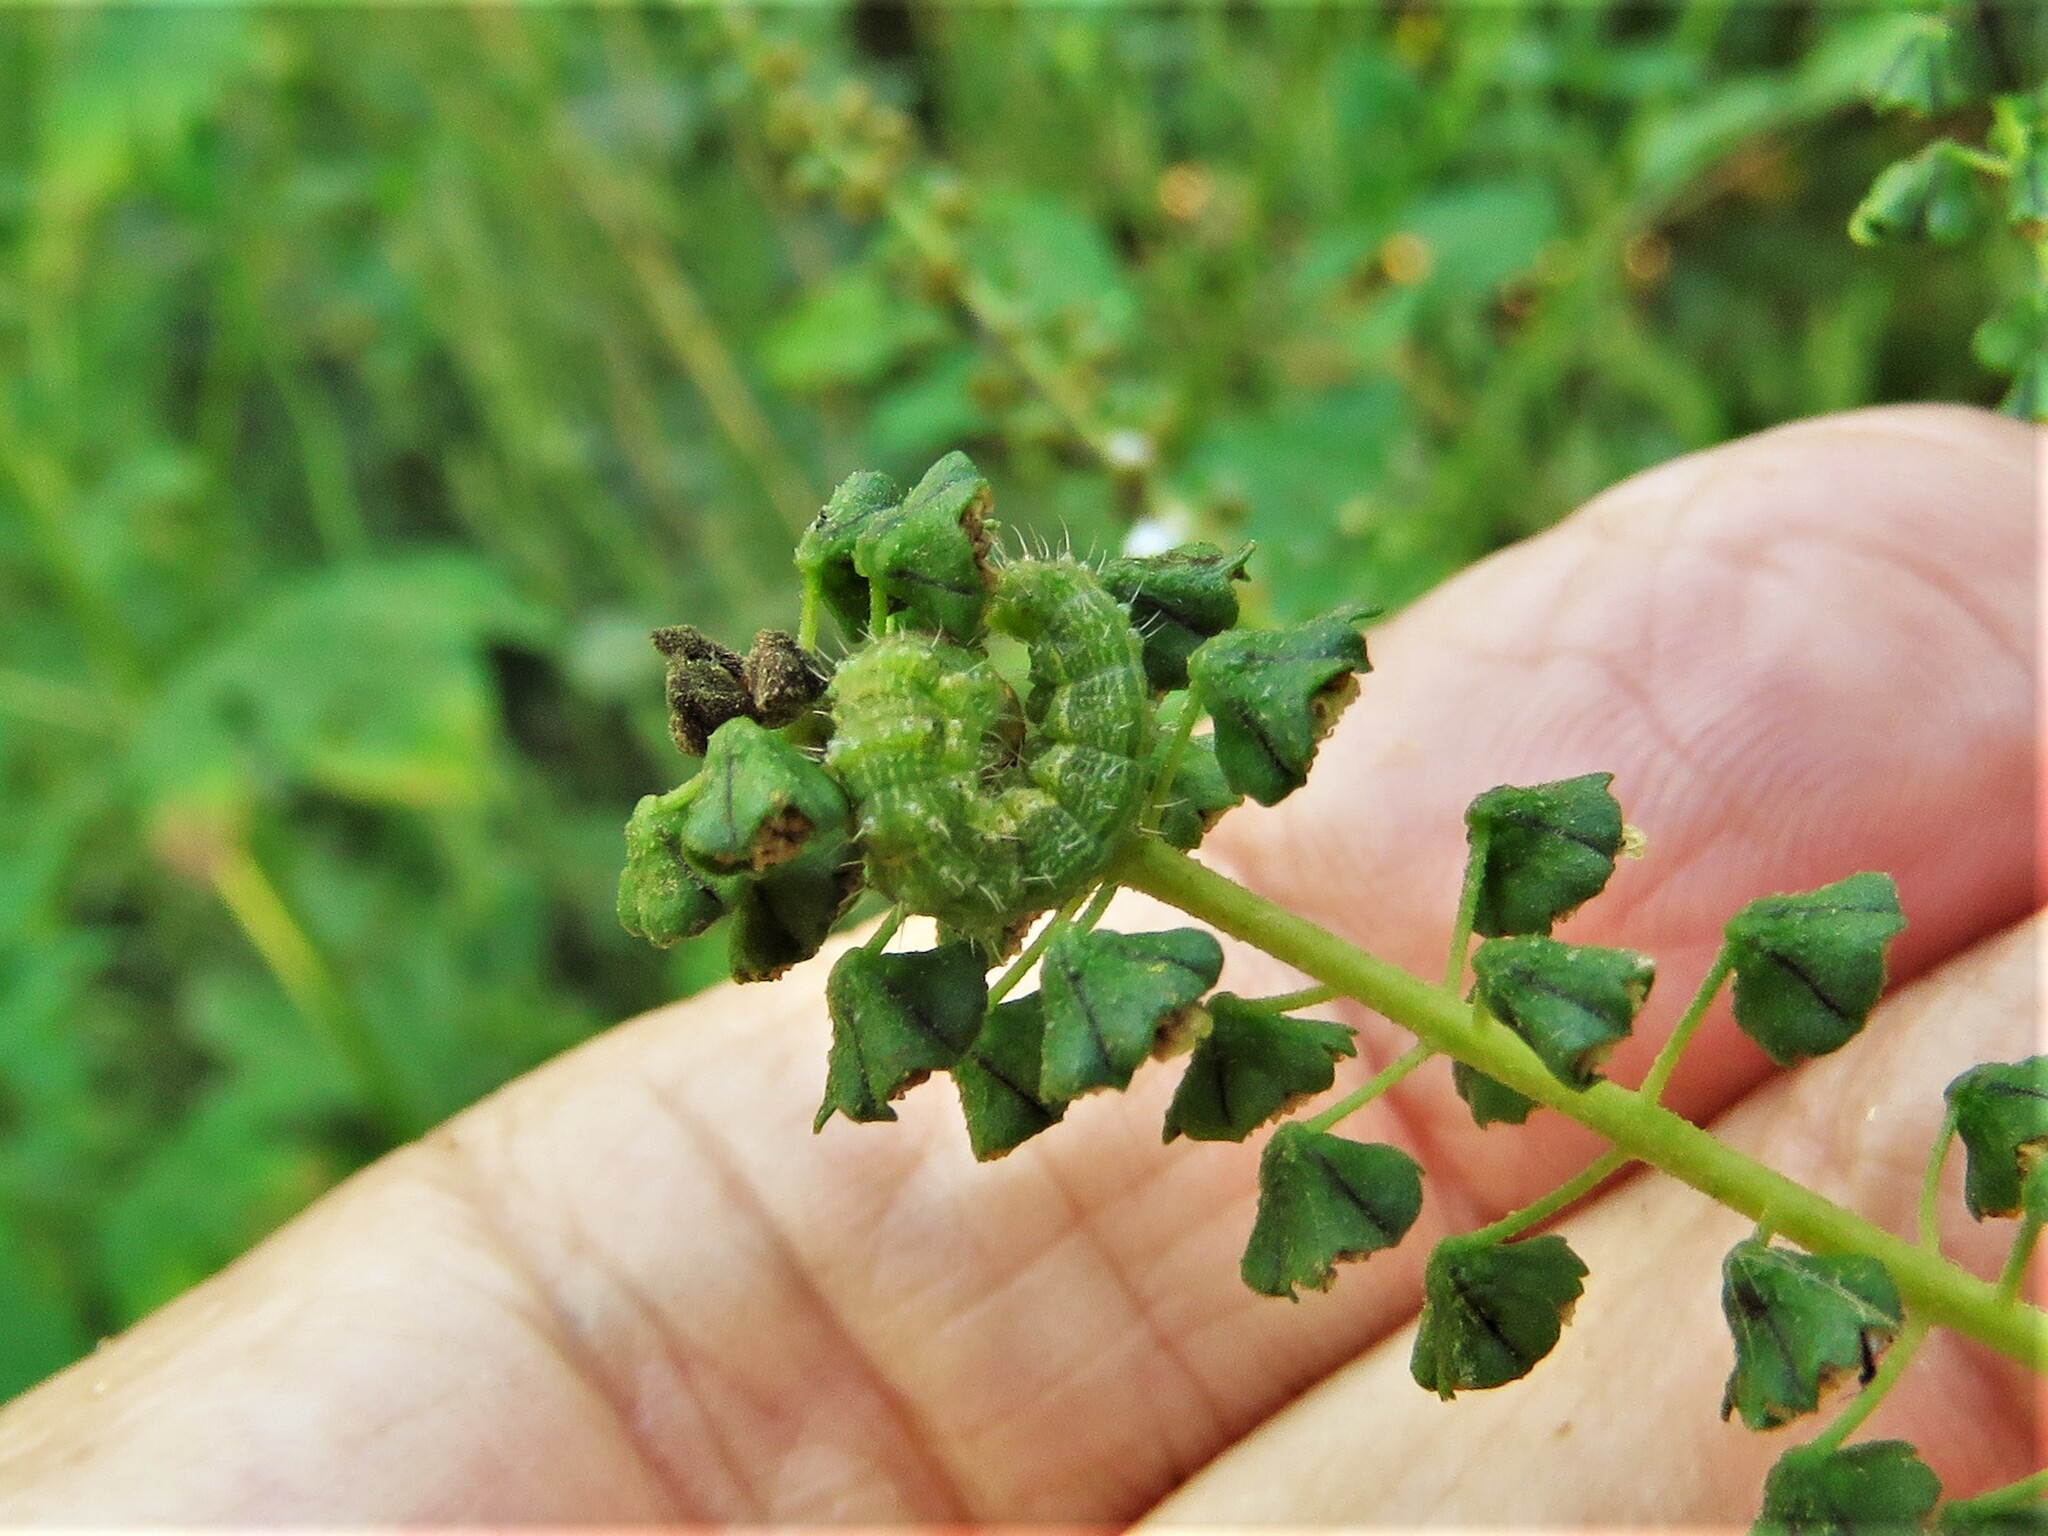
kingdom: Animalia
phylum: Arthropoda
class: Insecta
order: Lepidoptera
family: Noctuidae
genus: Schinia
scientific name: Schinia gracilenta
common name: Slender flower moth
